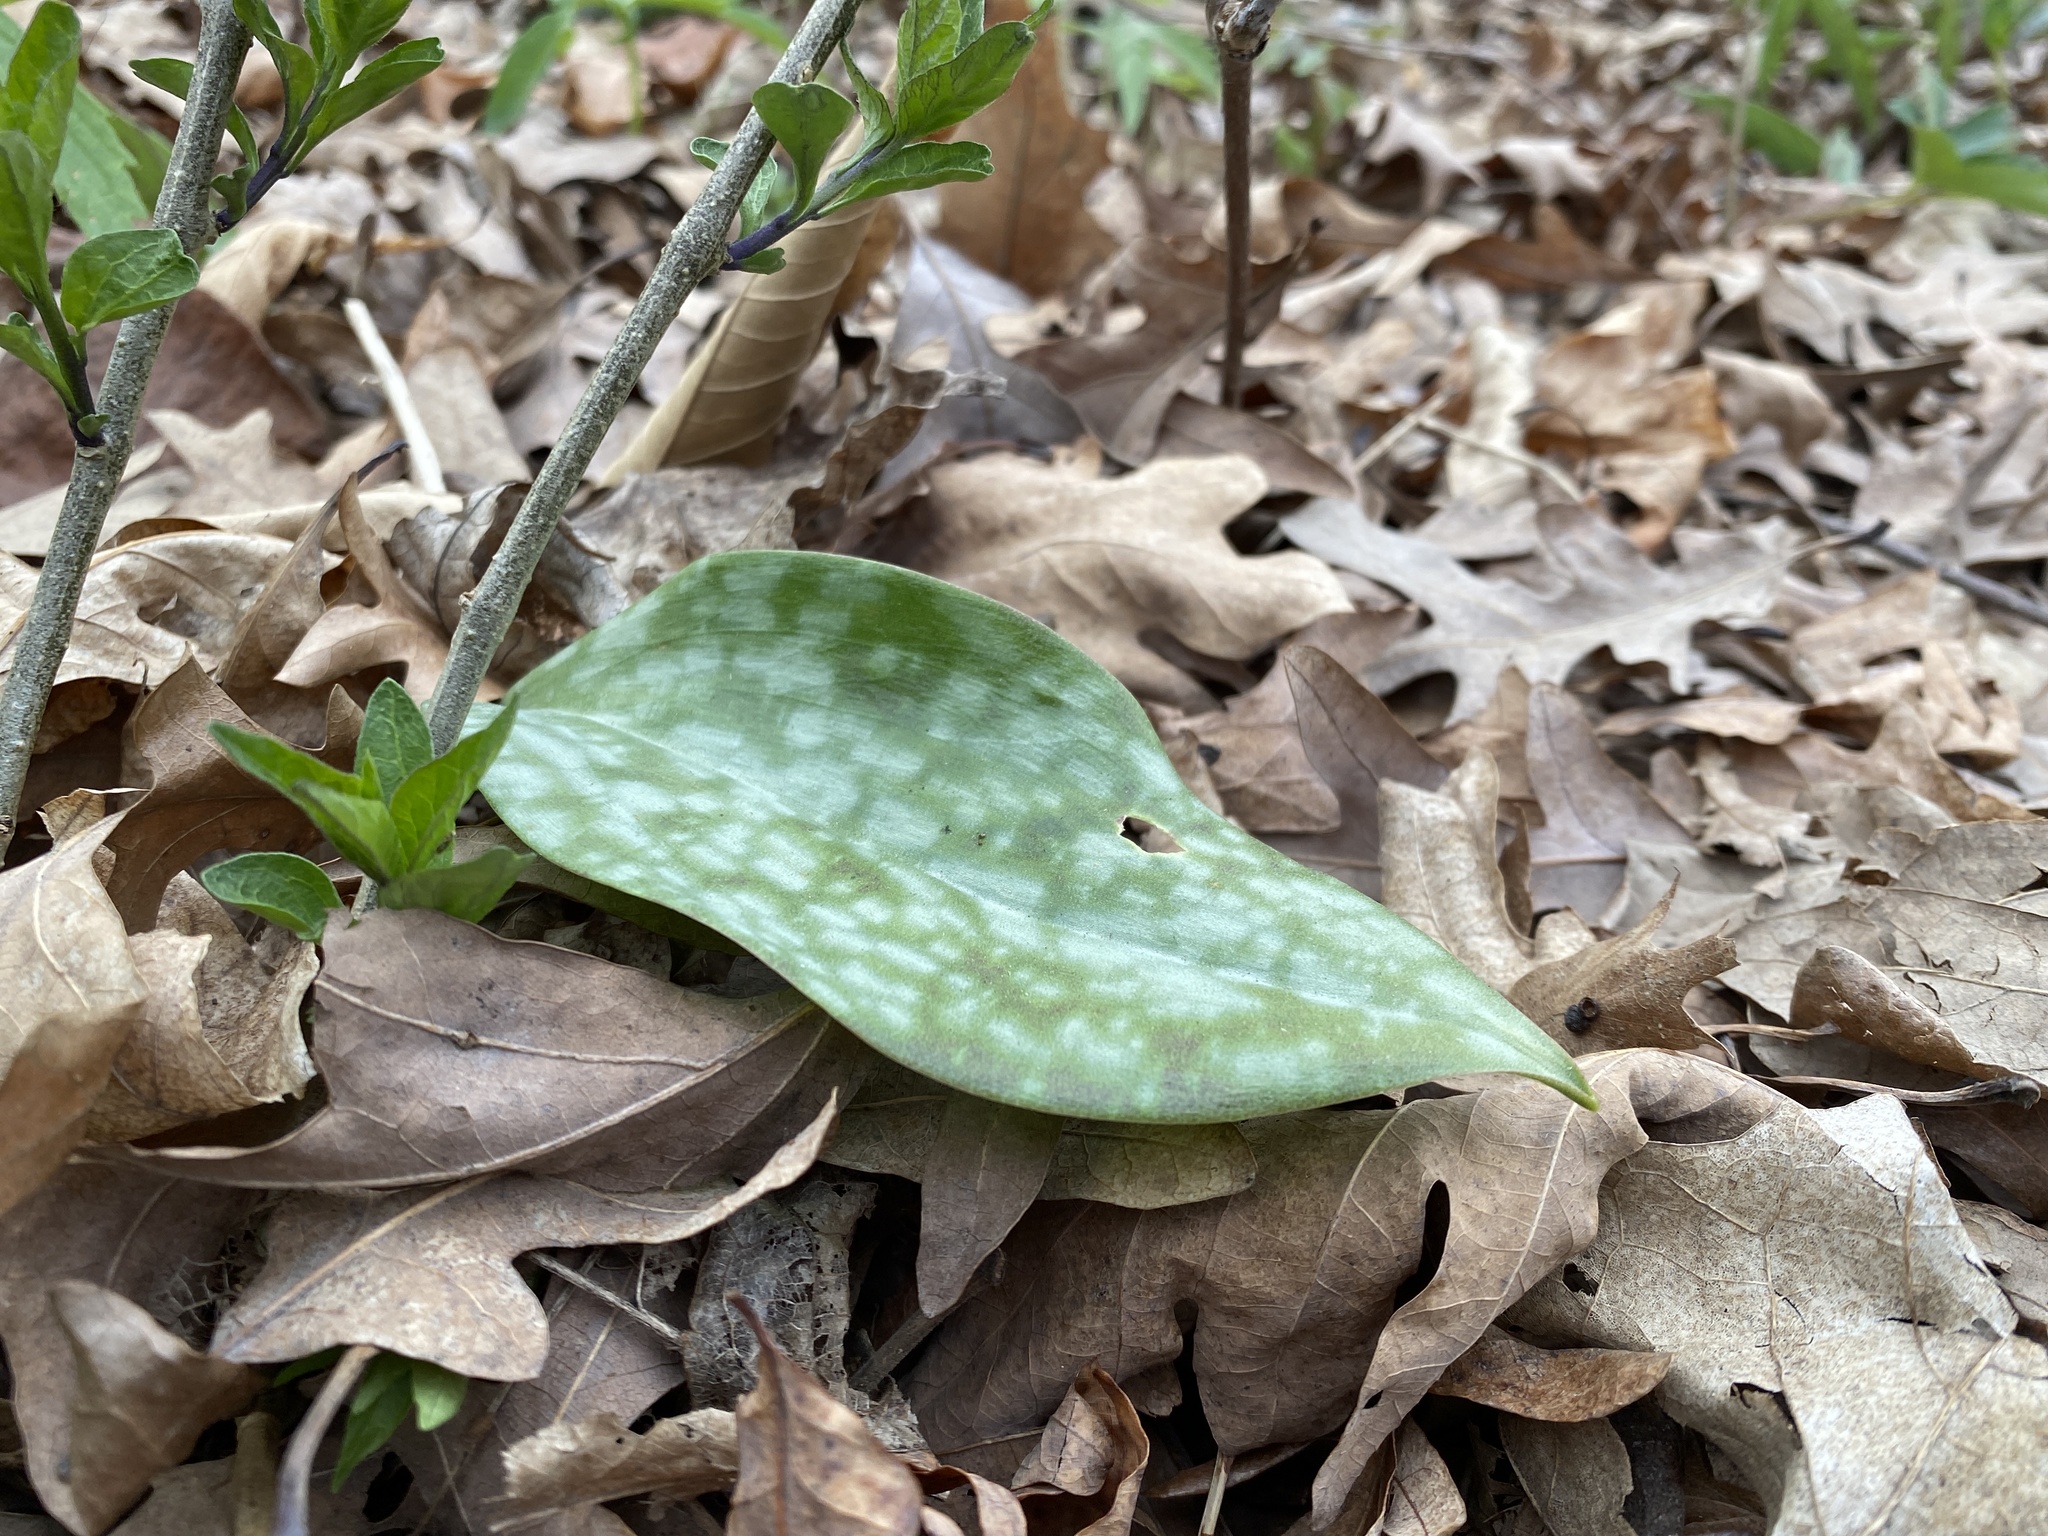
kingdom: Plantae
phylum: Tracheophyta
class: Liliopsida
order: Liliales
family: Liliaceae
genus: Erythronium
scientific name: Erythronium
